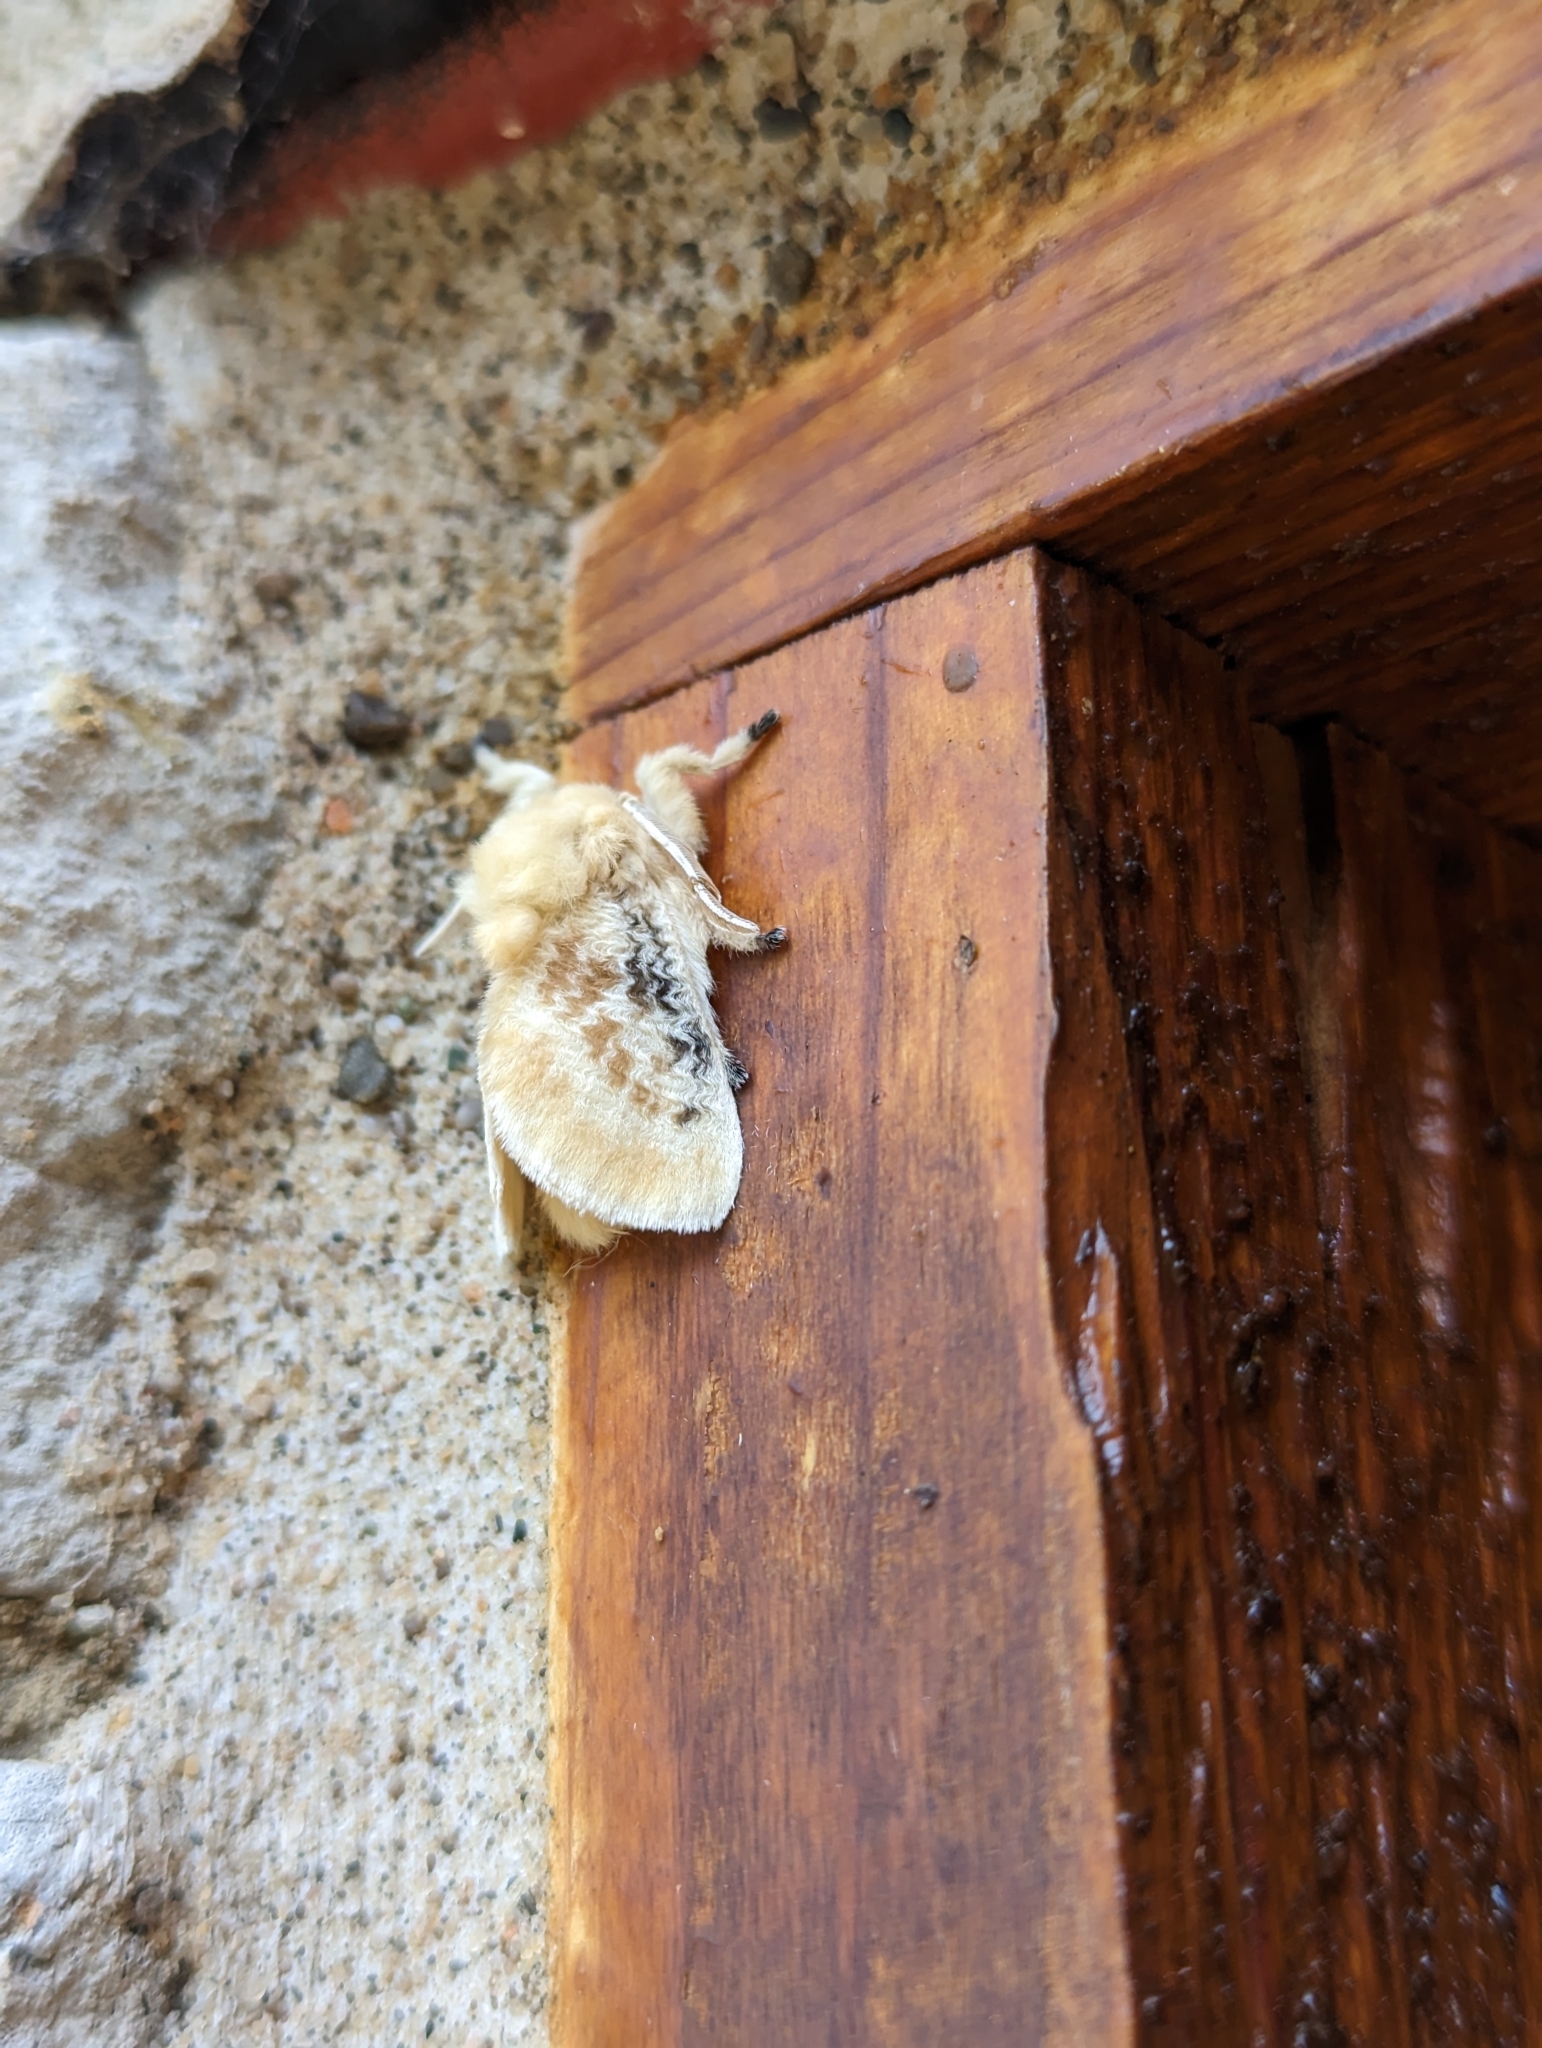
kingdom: Animalia
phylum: Arthropoda
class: Insecta
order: Lepidoptera
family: Megalopygidae
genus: Megalopyge
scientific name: Megalopyge crispata
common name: Black-waved flannel moth
